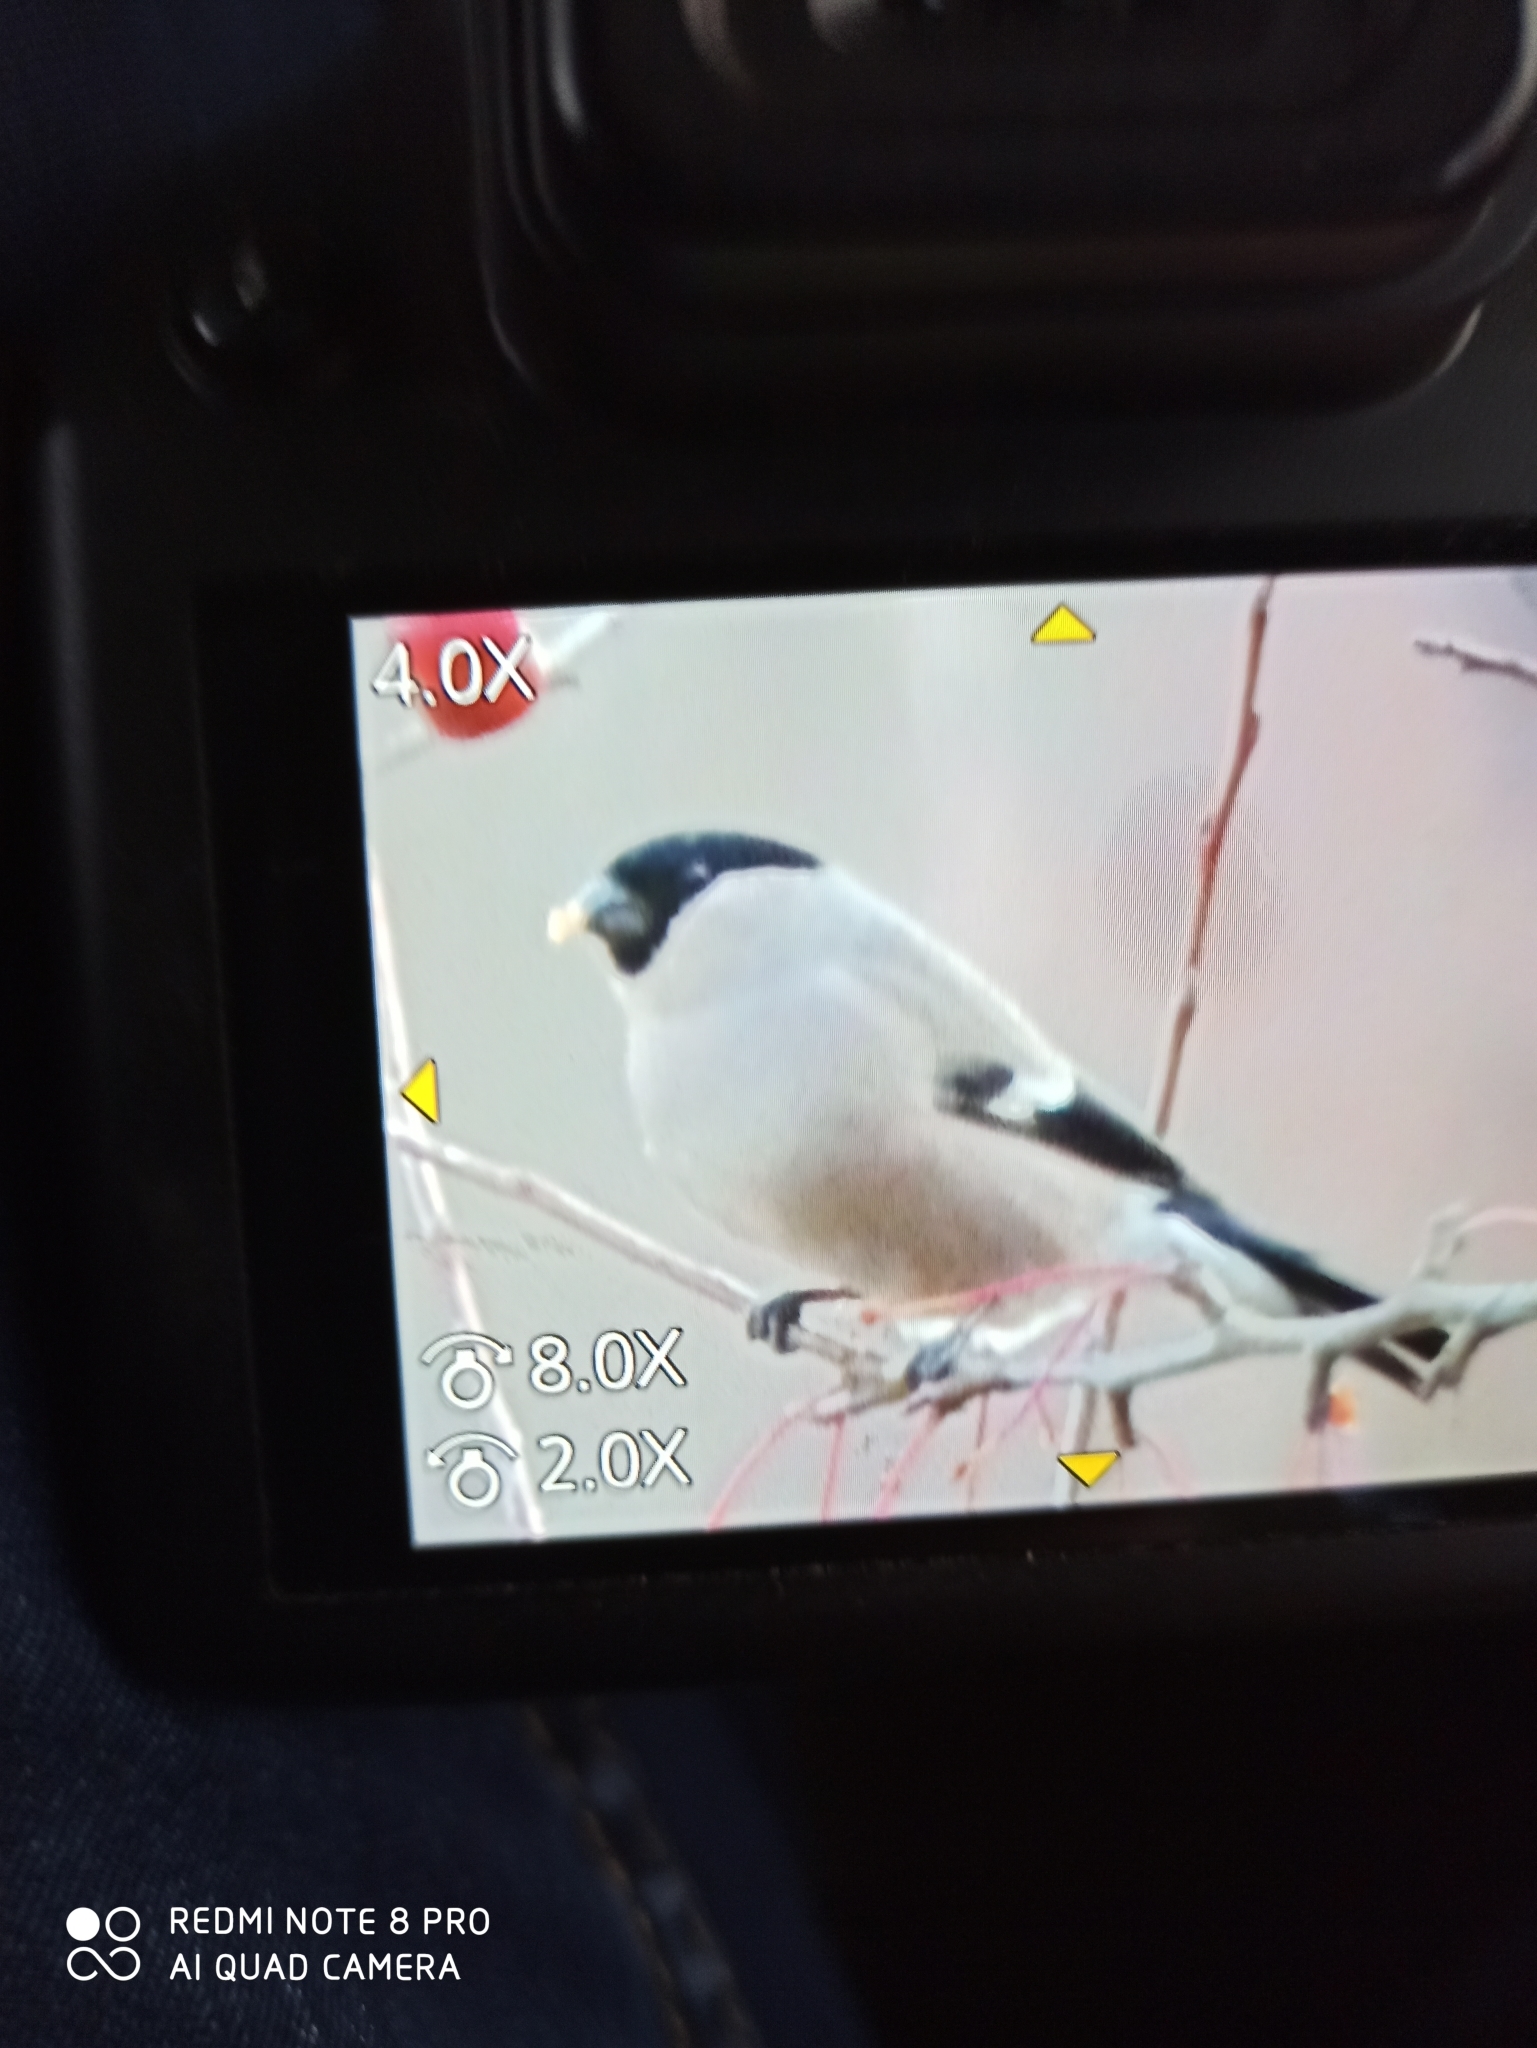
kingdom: Animalia
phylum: Chordata
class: Aves
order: Passeriformes
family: Fringillidae
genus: Pyrrhula
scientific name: Pyrrhula pyrrhula
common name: Eurasian bullfinch
